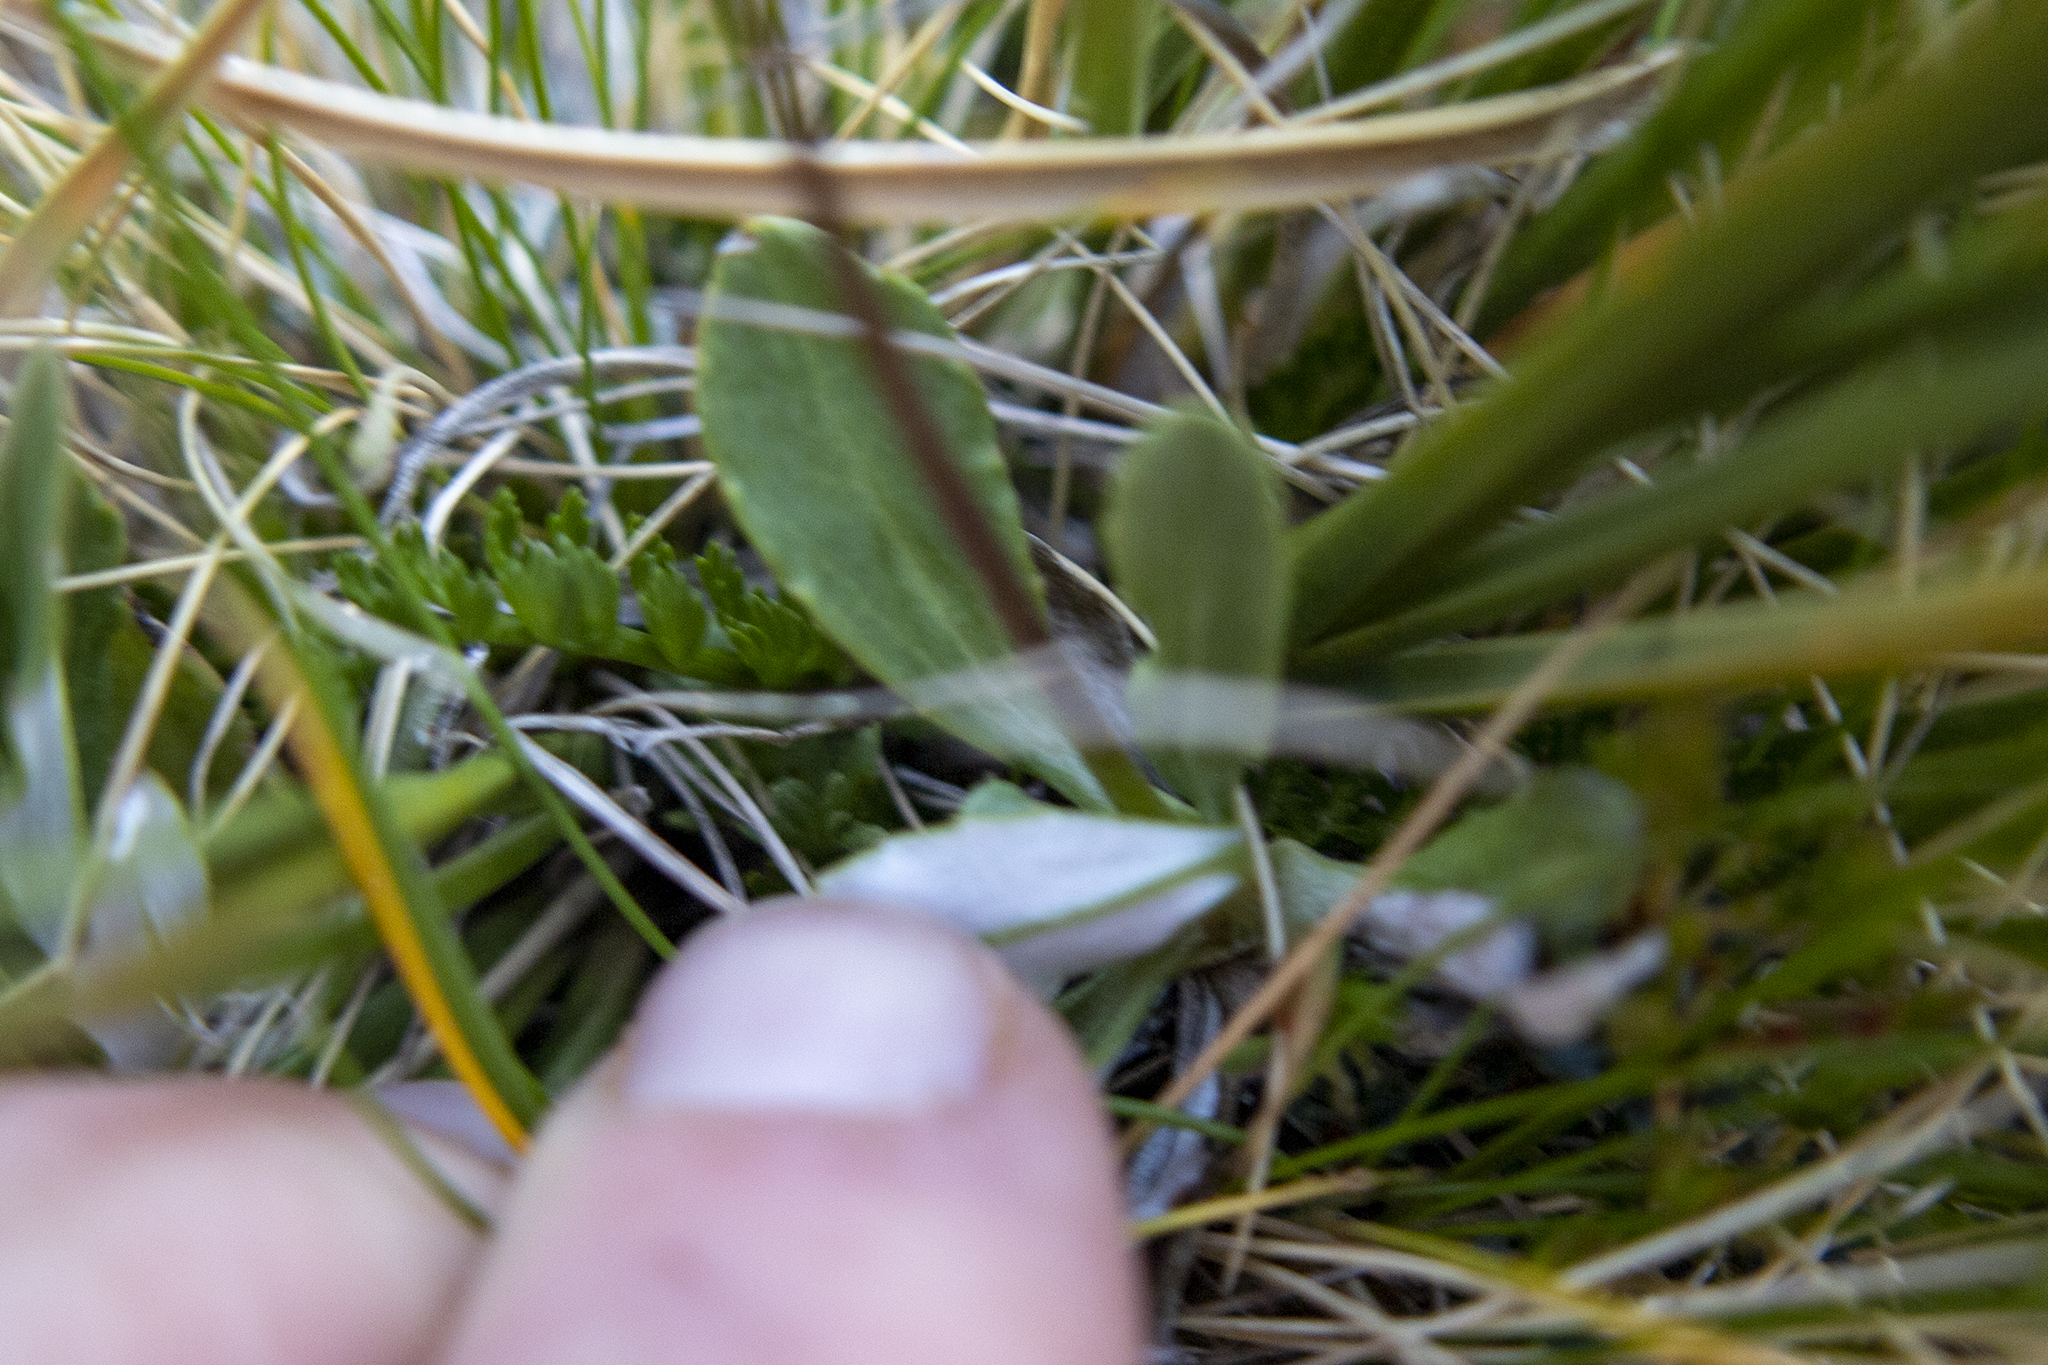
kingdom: Plantae
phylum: Tracheophyta
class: Magnoliopsida
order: Asterales
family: Asteraceae
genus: Celmisia
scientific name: Celmisia durietzii
